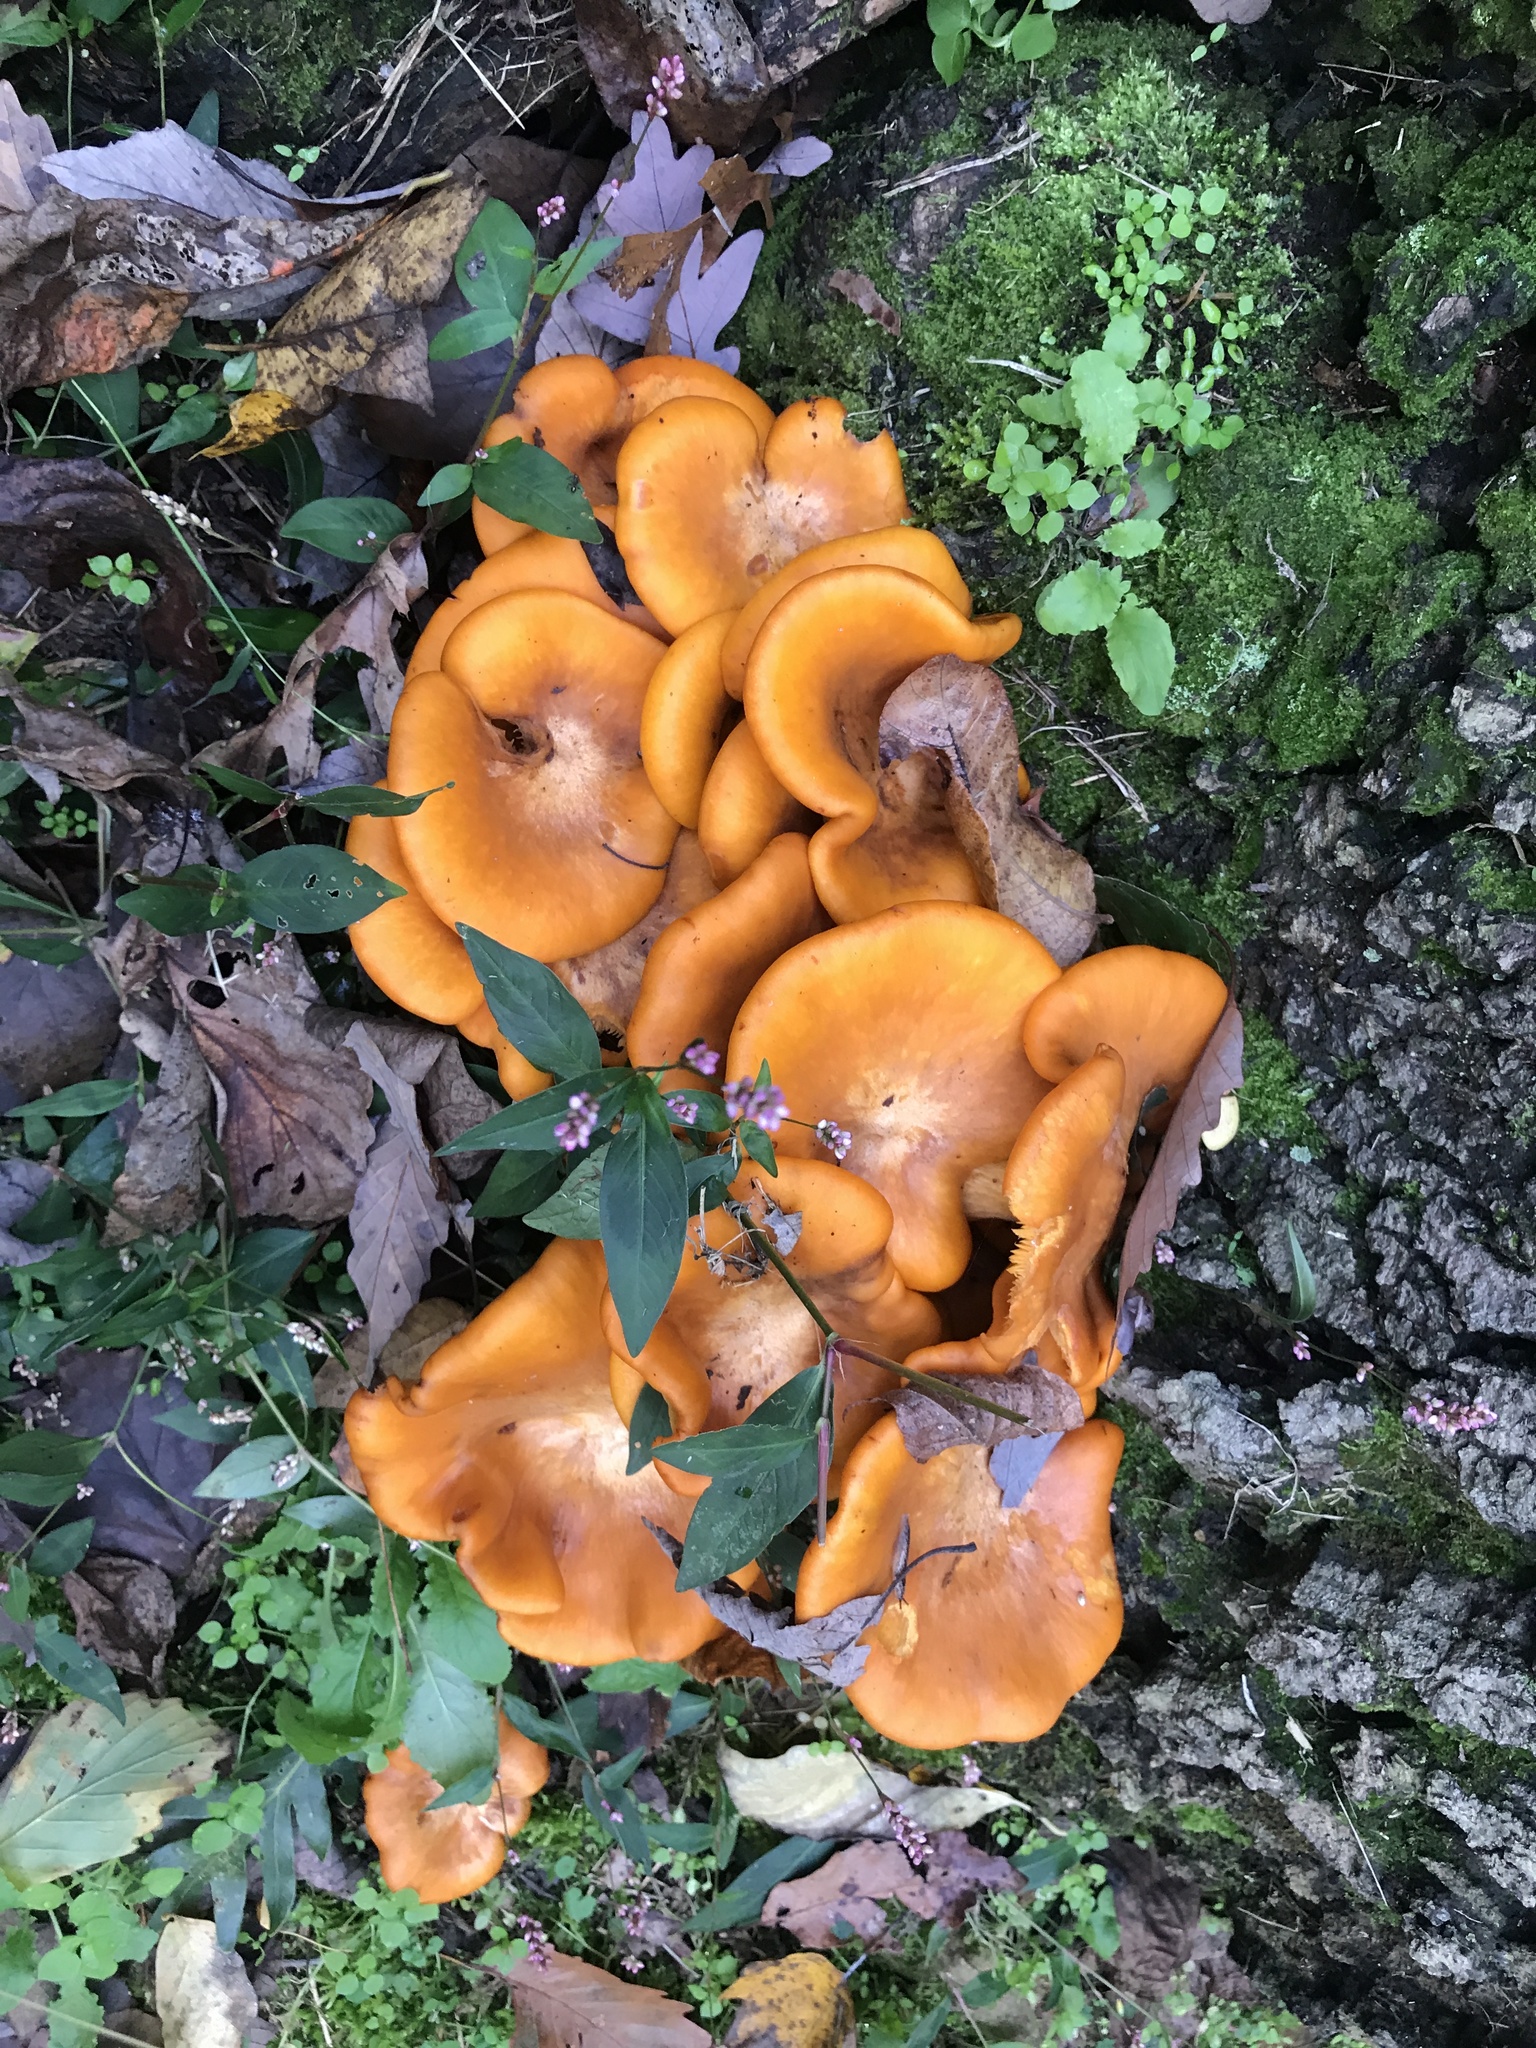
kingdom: Fungi
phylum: Basidiomycota
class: Agaricomycetes
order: Agaricales
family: Omphalotaceae
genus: Omphalotus
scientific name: Omphalotus illudens
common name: Jack o lantern
